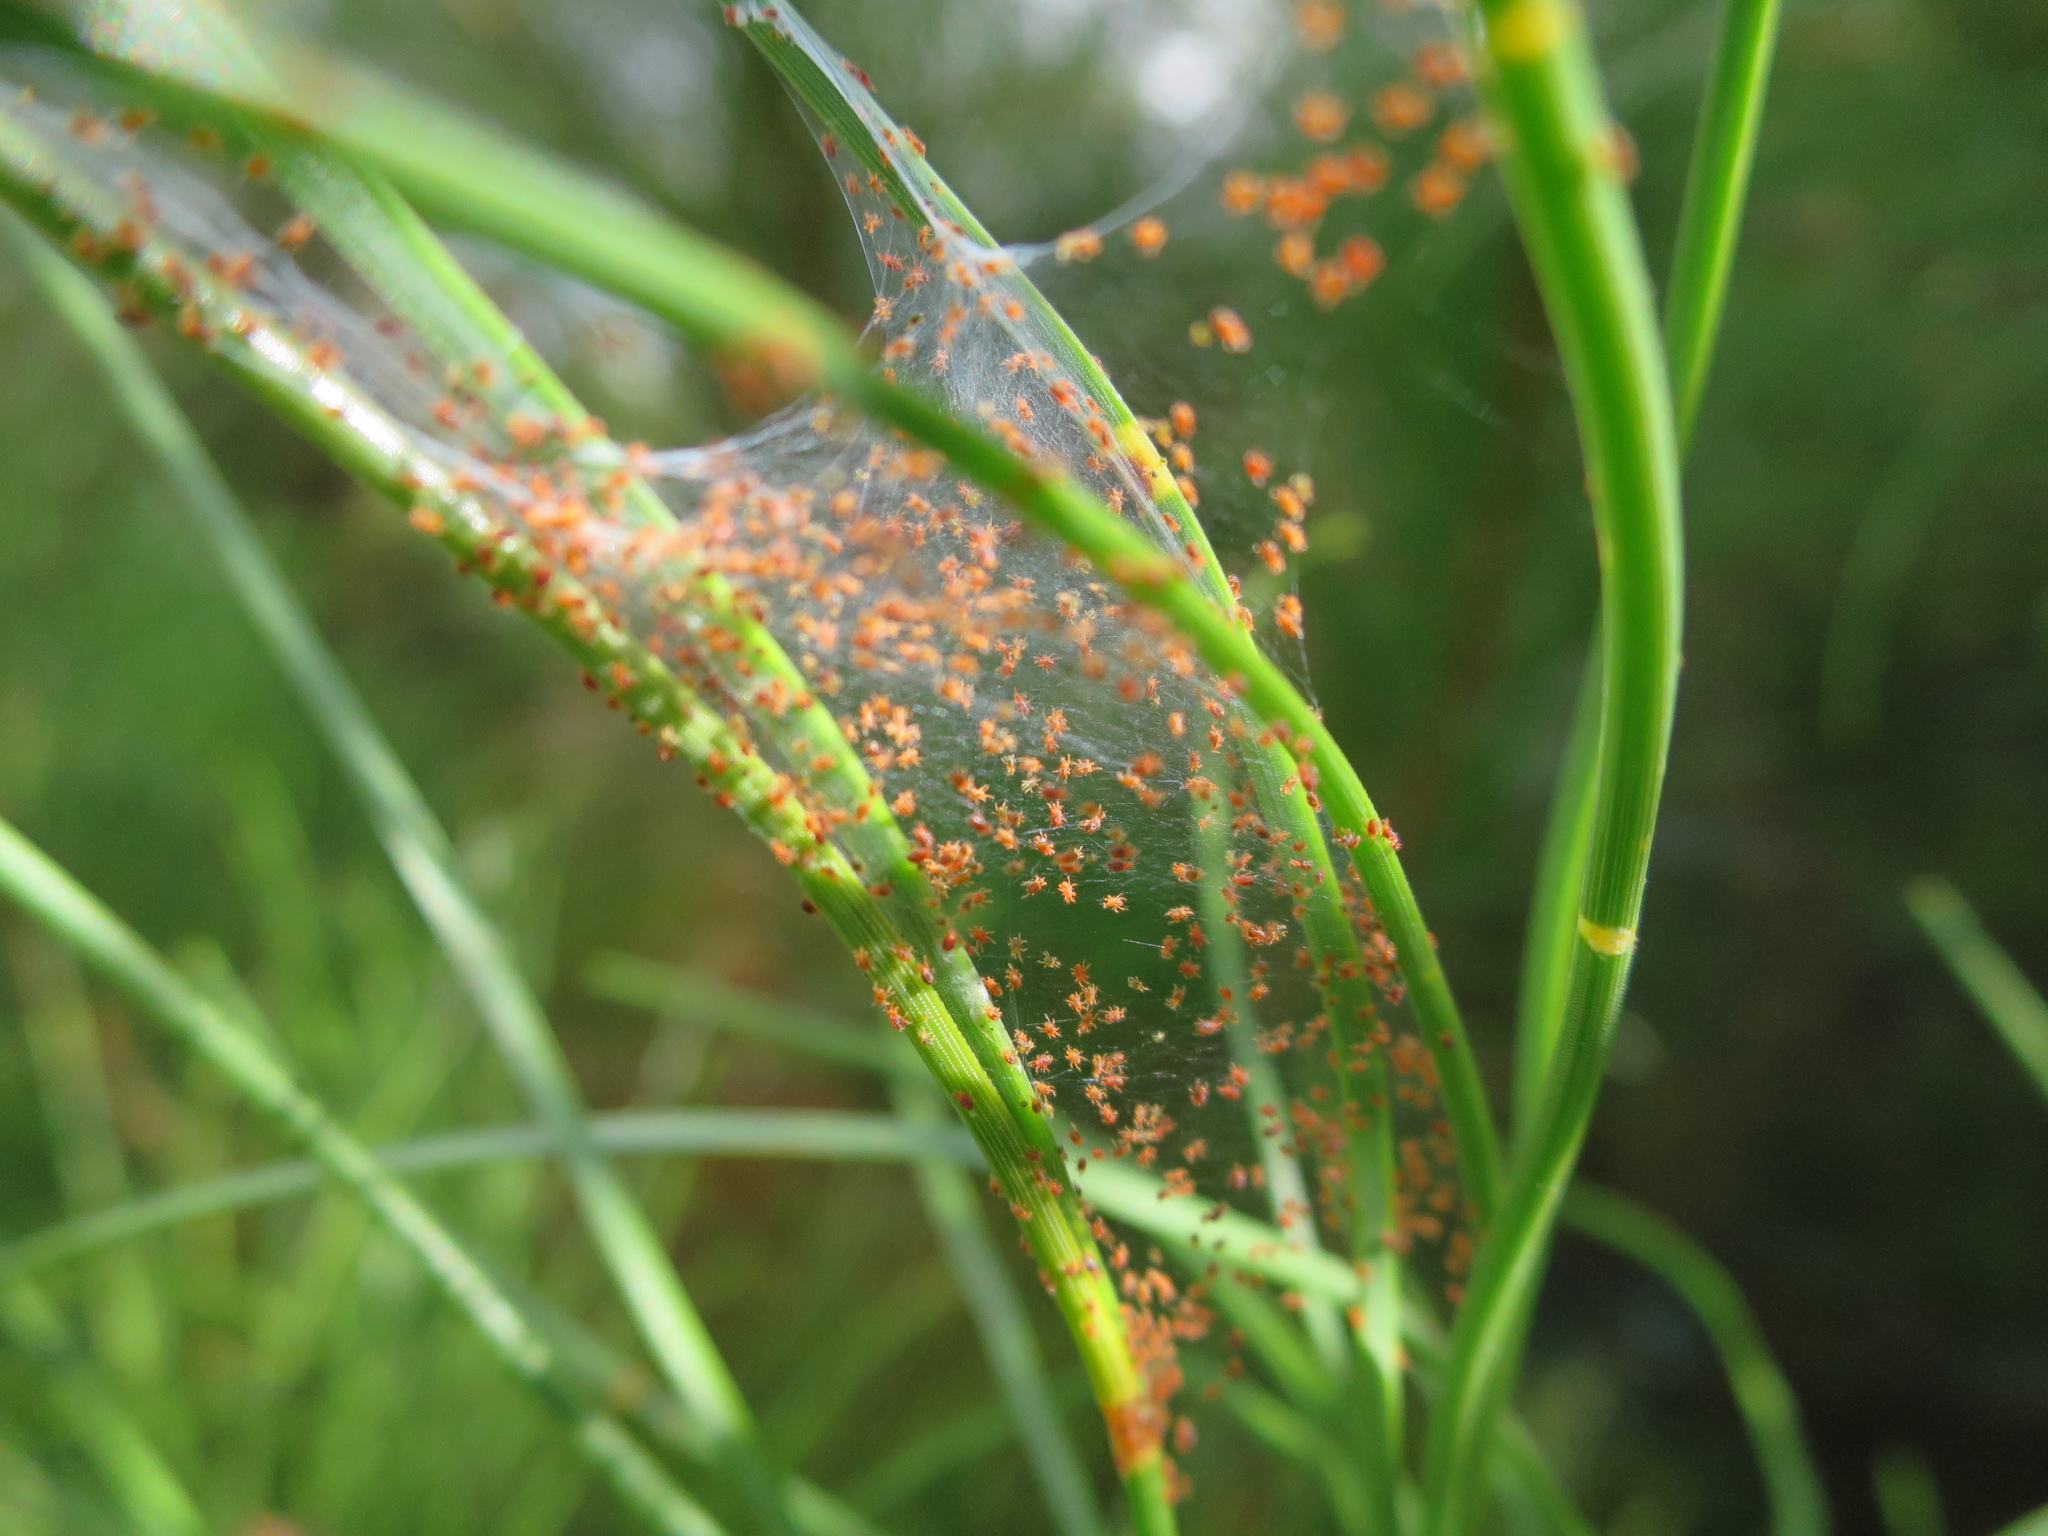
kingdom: Animalia
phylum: Arthropoda
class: Arachnida
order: Trombidiformes
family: Tetranychidae
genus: Tetranychus
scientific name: Tetranychus lintearius
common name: Gorse spider mite
